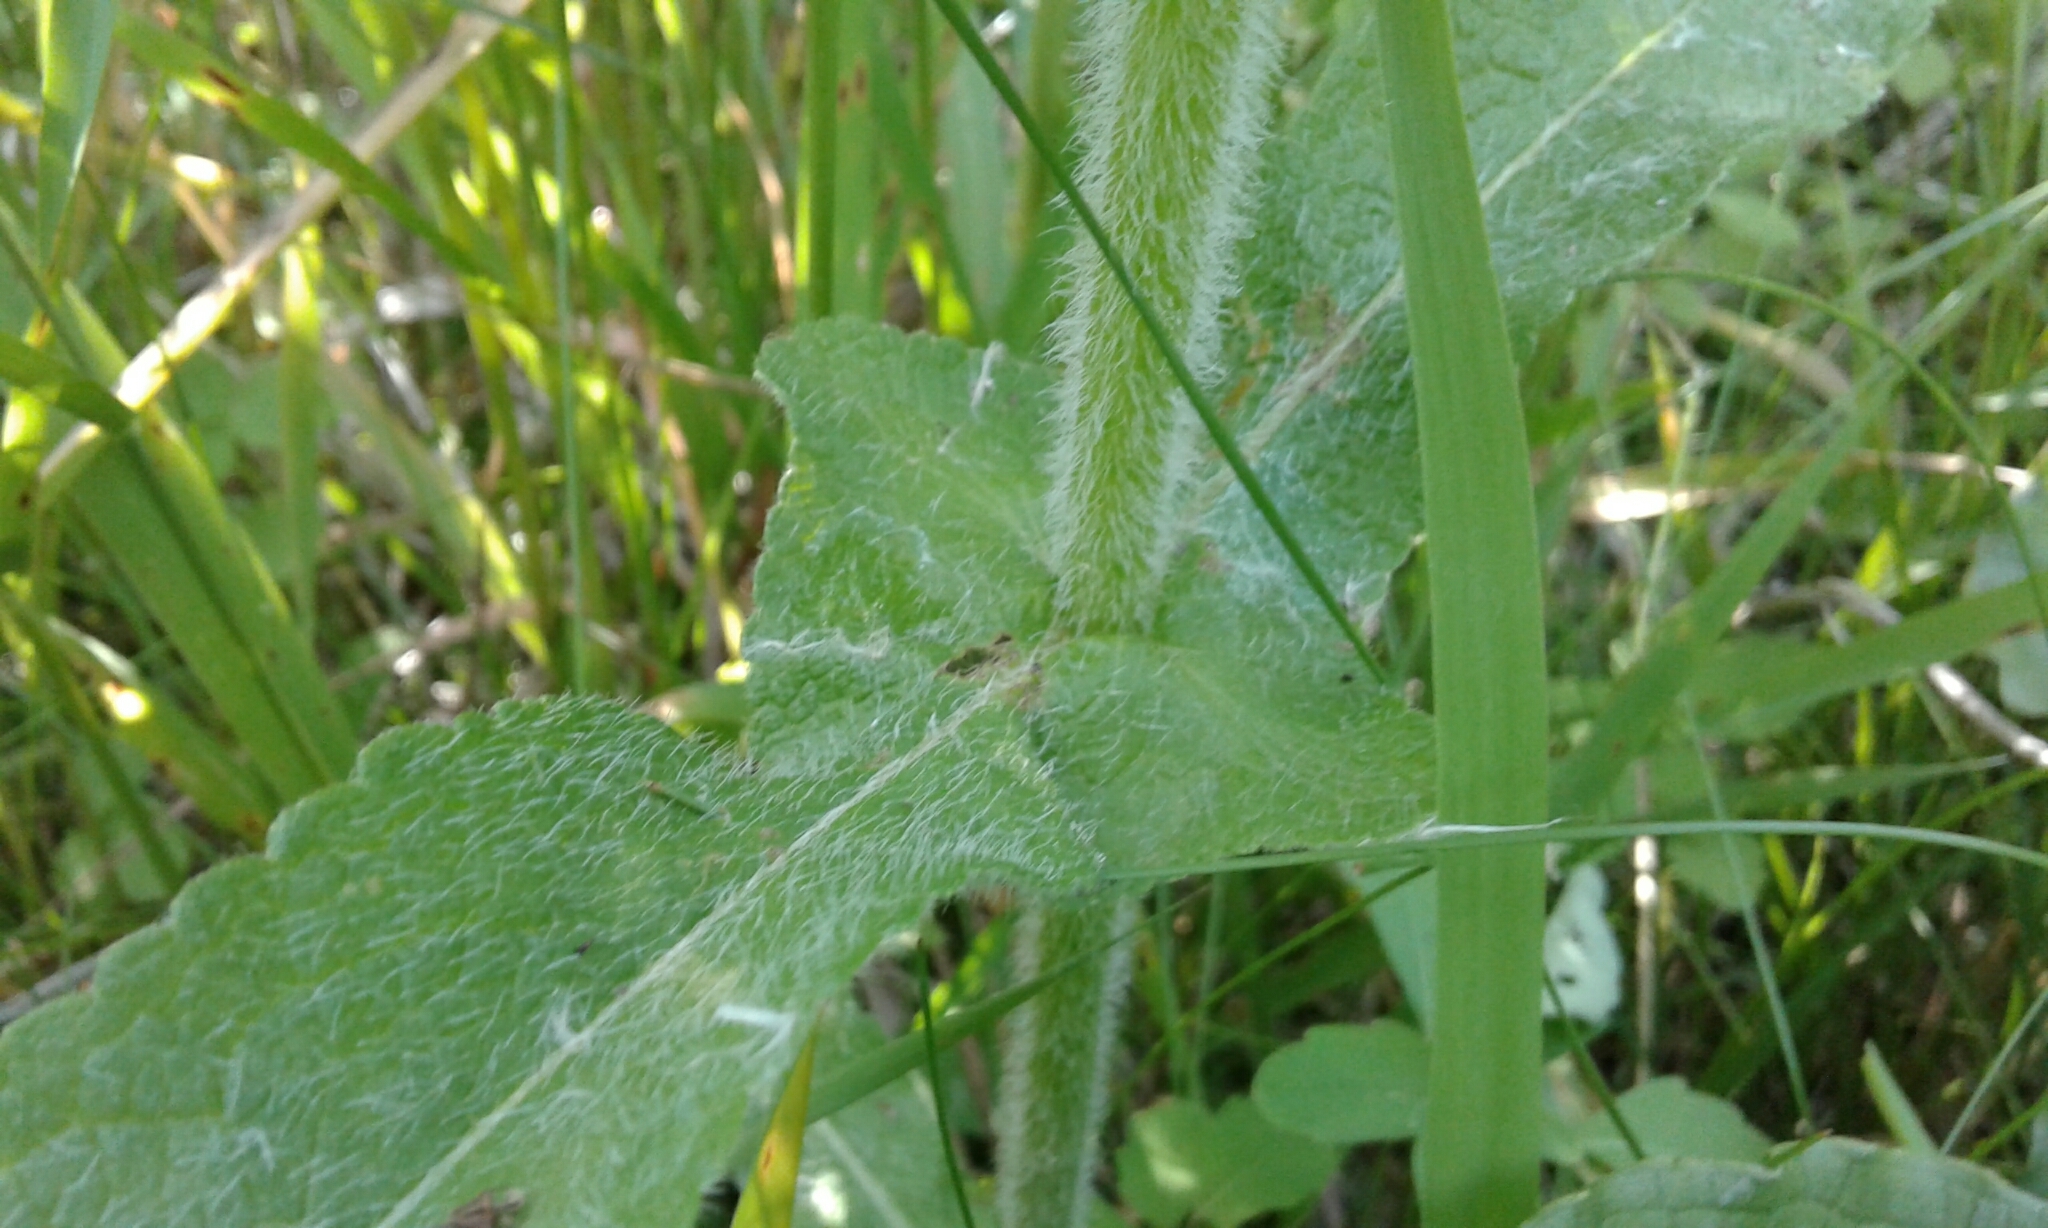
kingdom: Plantae
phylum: Tracheophyta
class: Magnoliopsida
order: Asterales
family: Asteraceae
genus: Eupatorium
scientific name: Eupatorium perfoliatum
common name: Boneset
